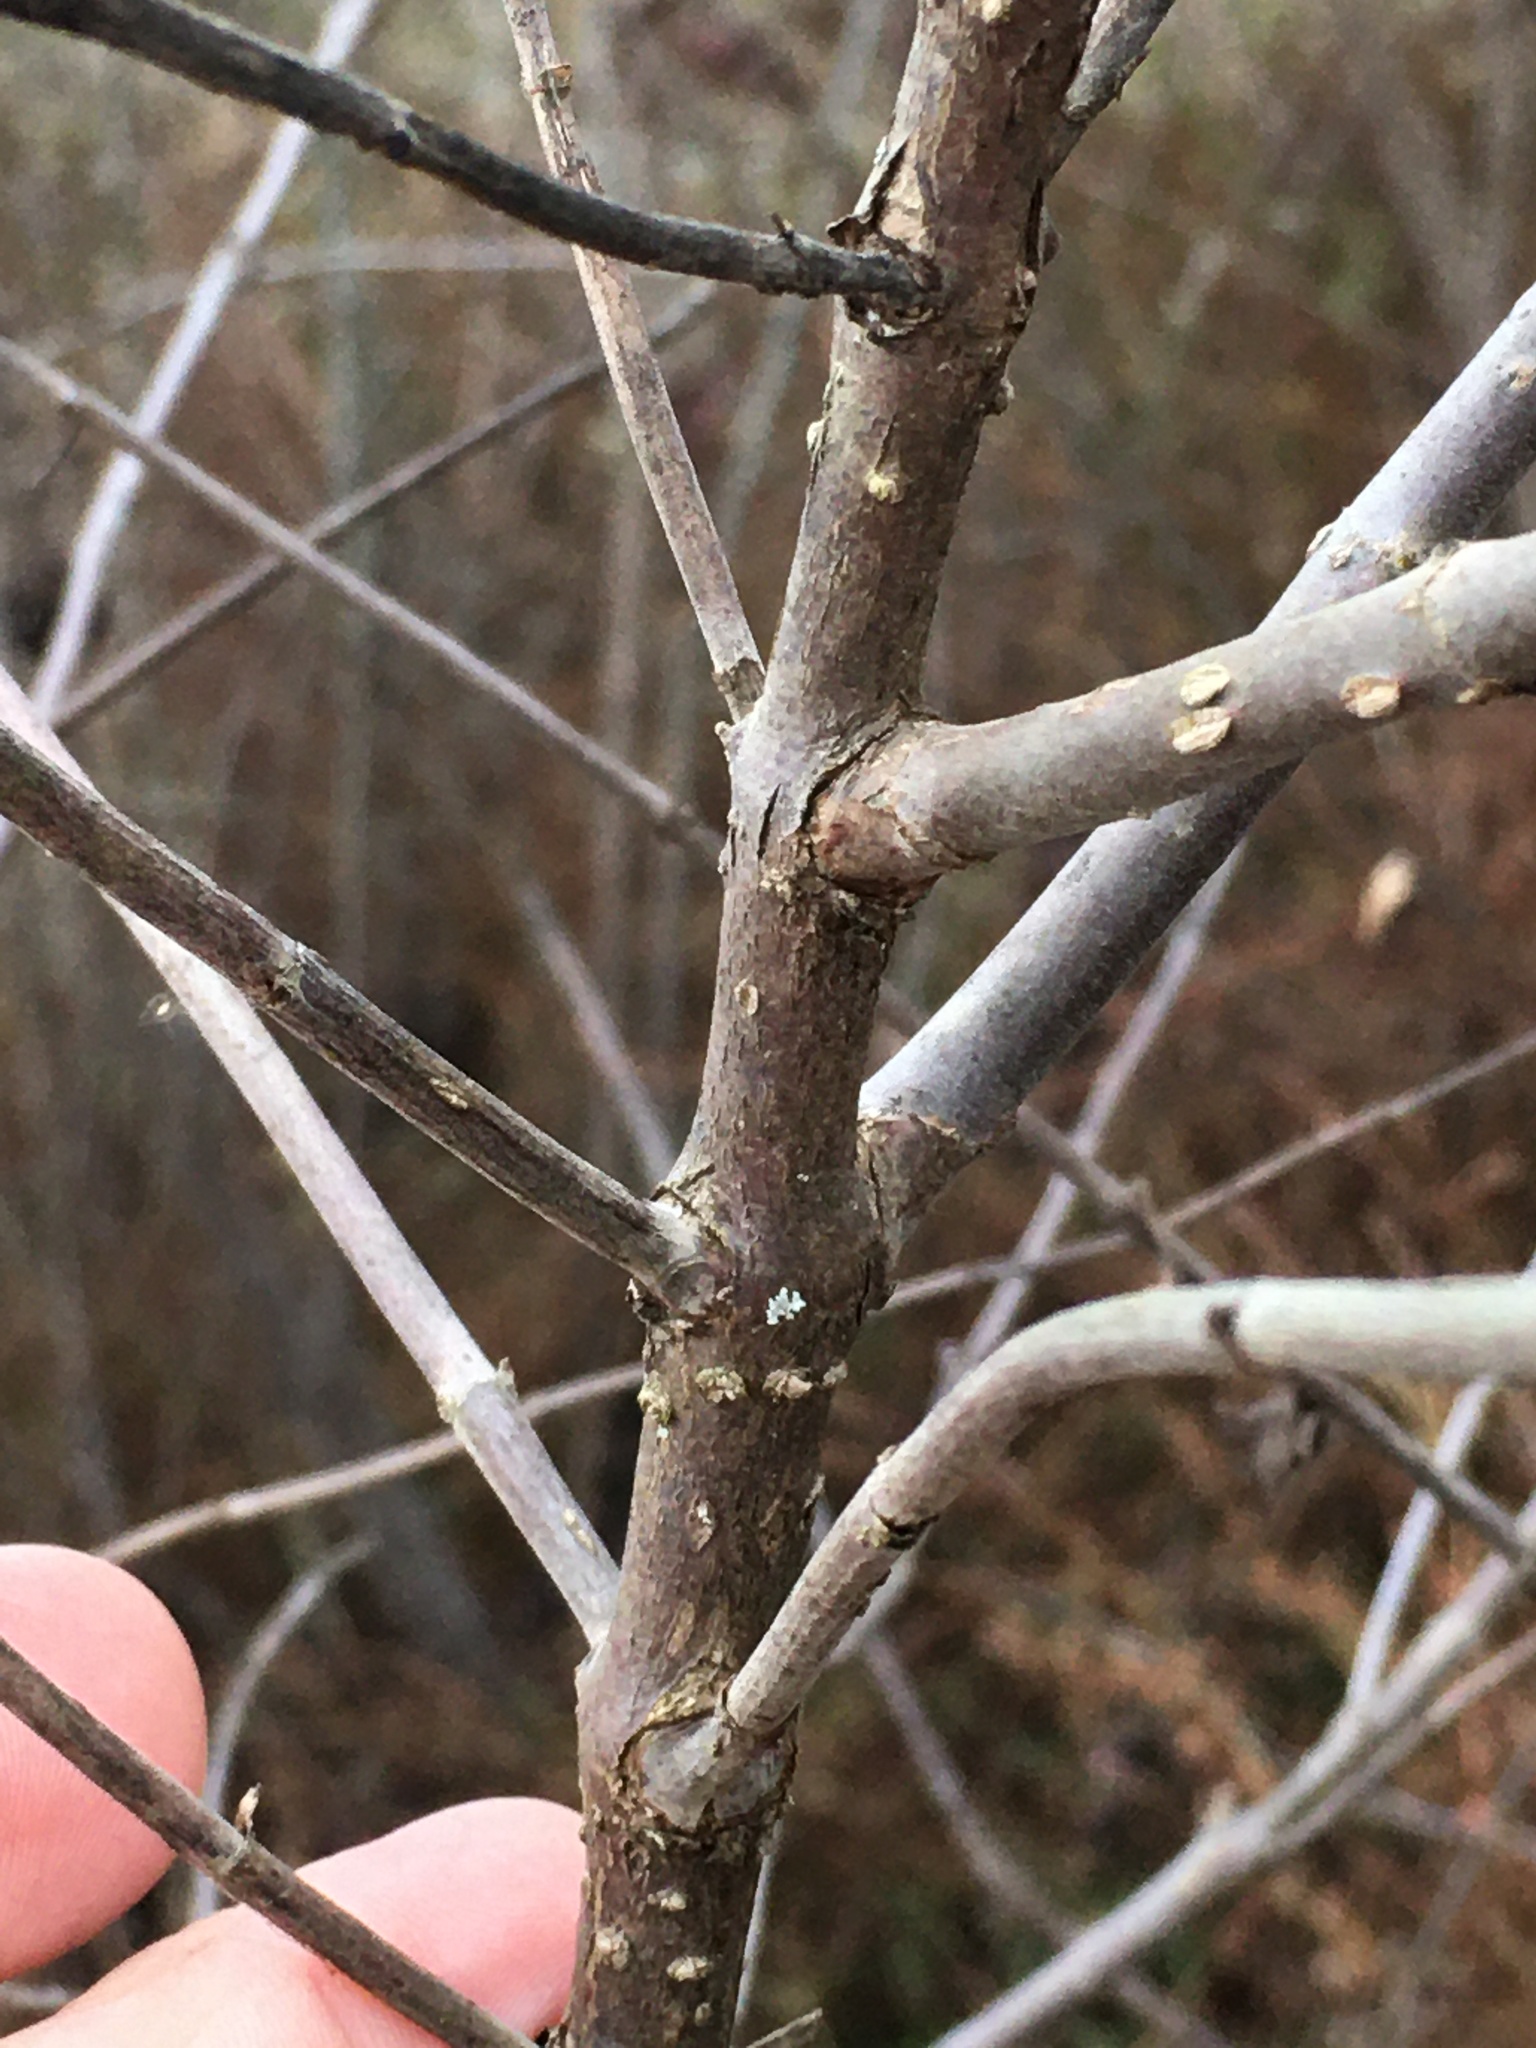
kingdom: Plantae
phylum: Tracheophyta
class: Magnoliopsida
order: Gentianales
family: Rubiaceae
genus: Cephalanthus
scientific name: Cephalanthus occidentalis
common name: Button-willow
